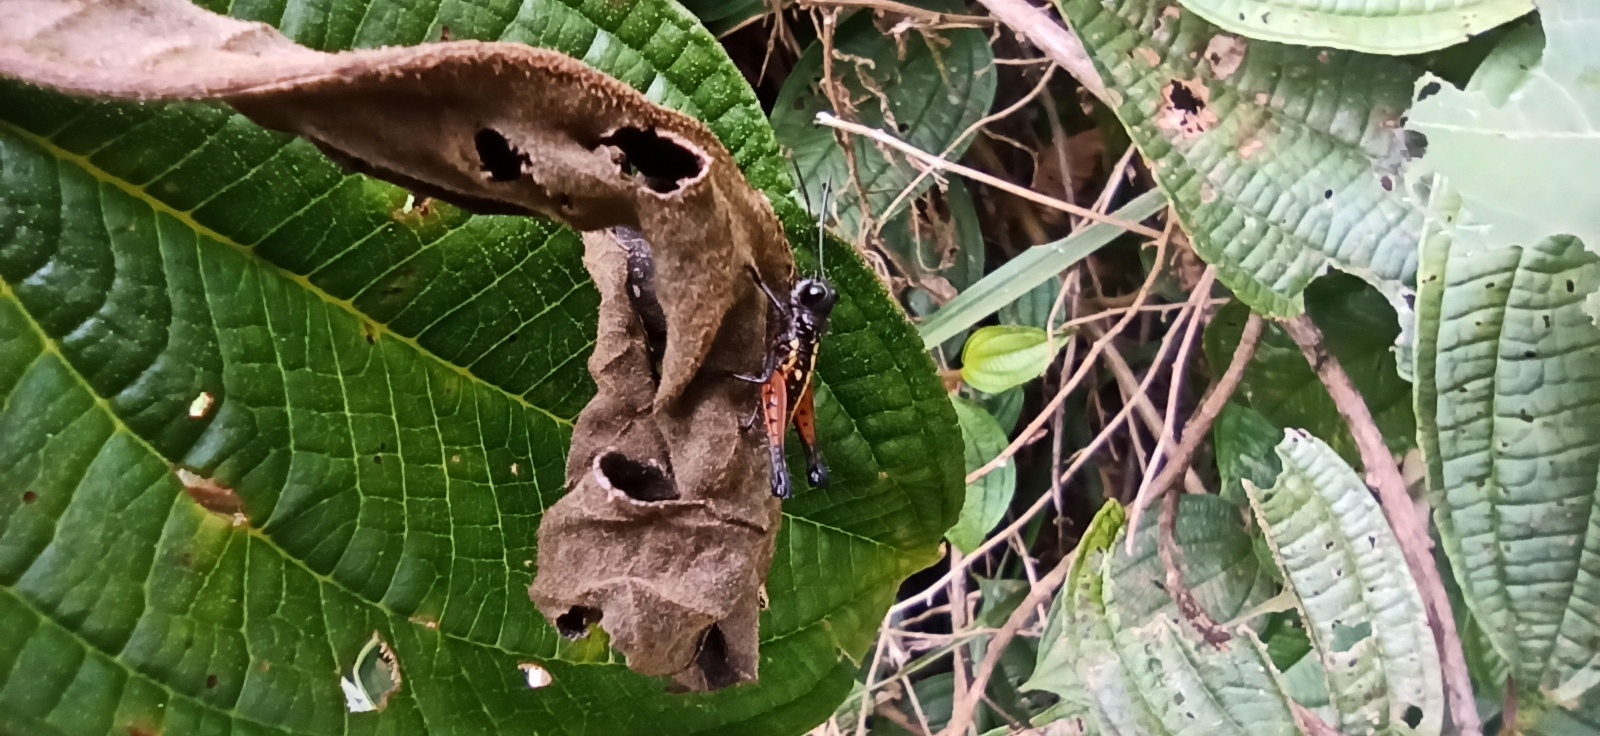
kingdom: Animalia
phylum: Arthropoda
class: Insecta
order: Orthoptera
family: Acrididae
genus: Loepacris
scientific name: Loepacris diaphana
